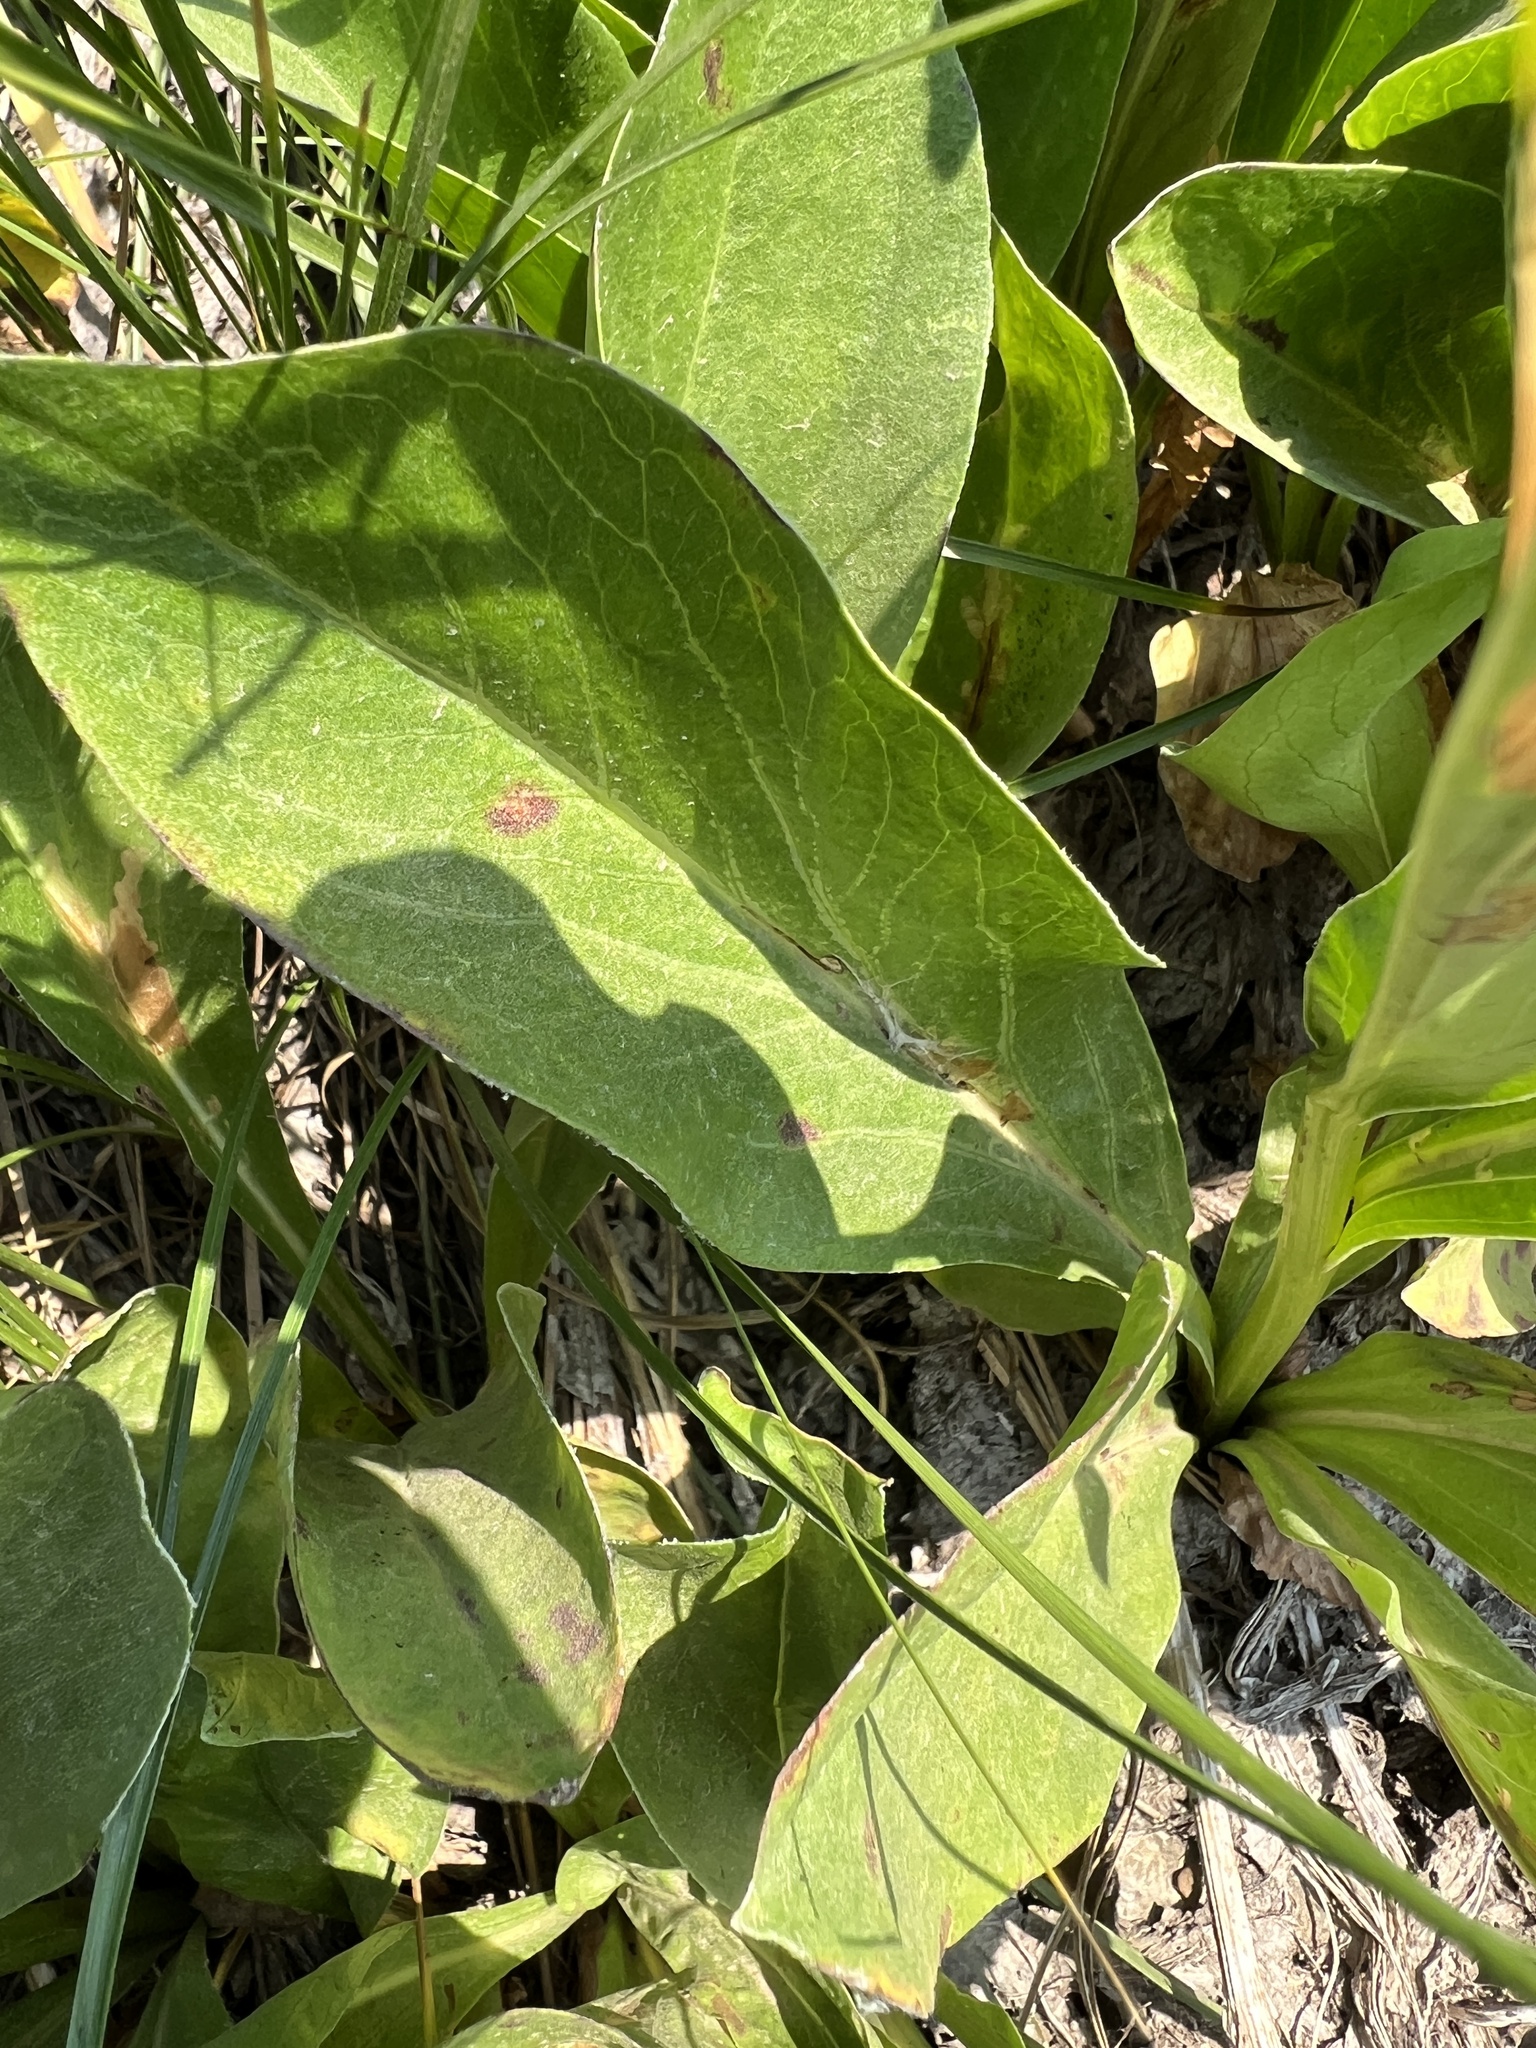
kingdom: Plantae
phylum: Tracheophyta
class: Magnoliopsida
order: Asterales
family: Asteraceae
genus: Rainiera
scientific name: Rainiera stricta
